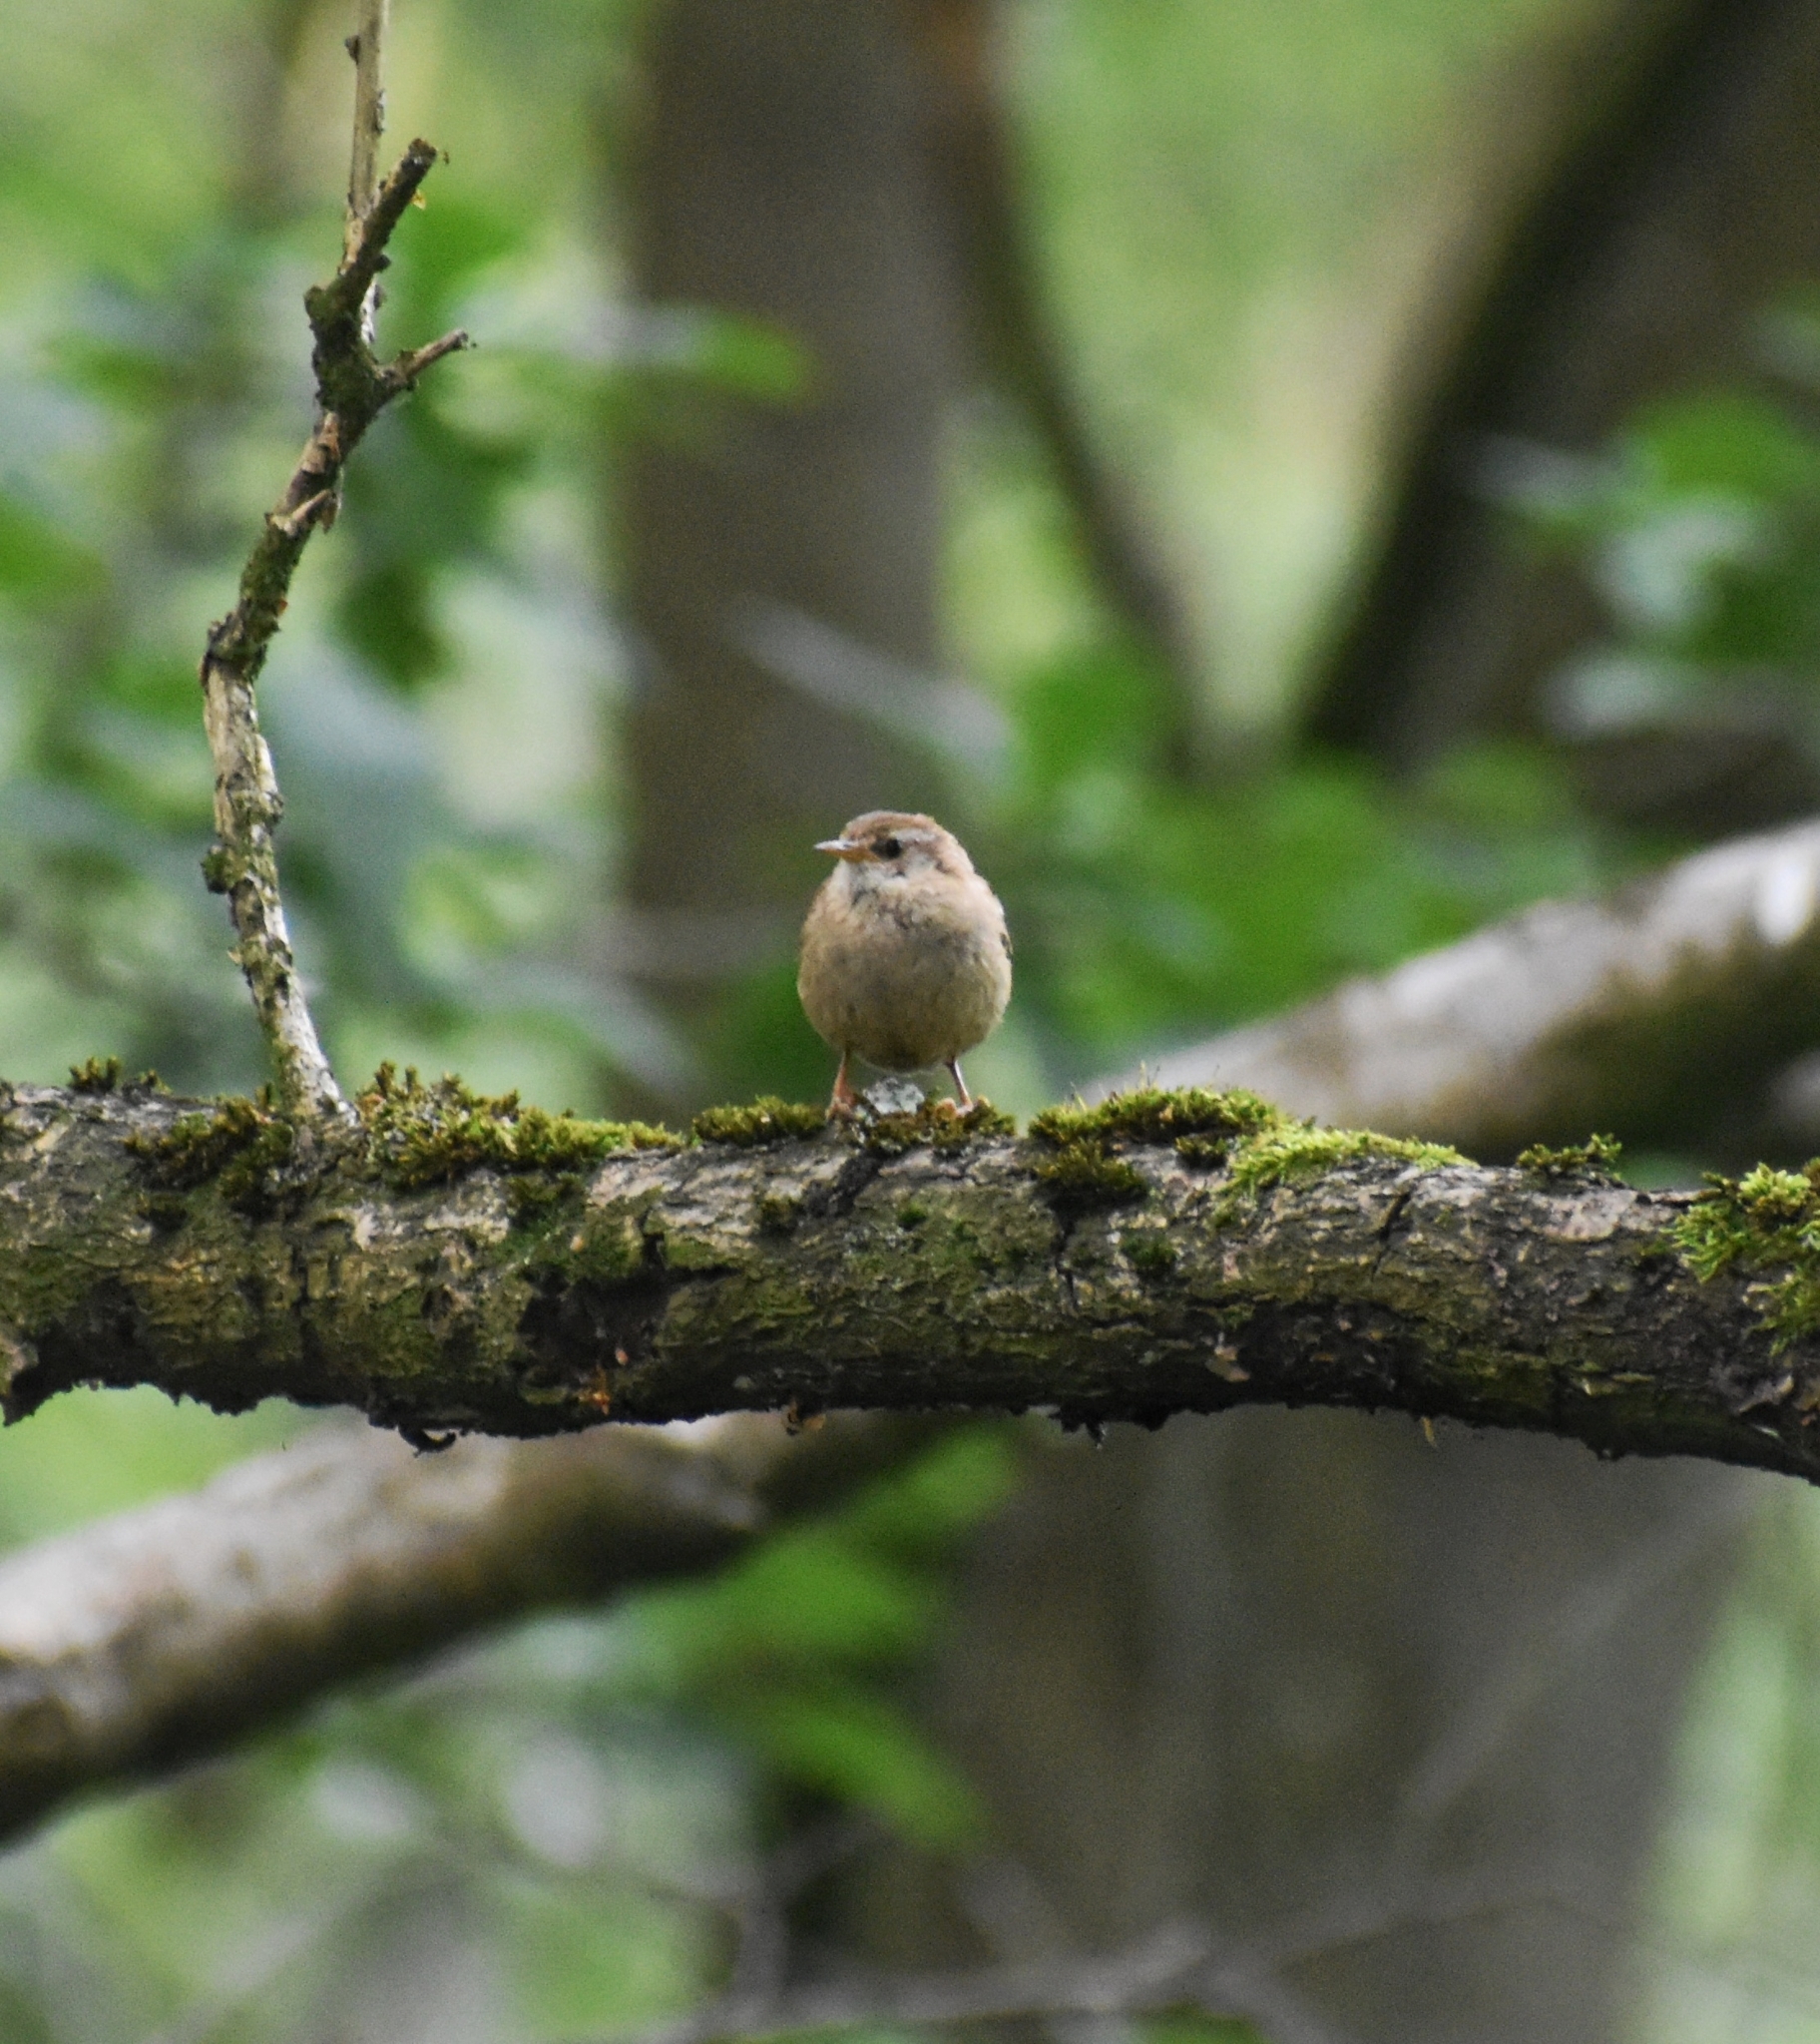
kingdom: Animalia
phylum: Chordata
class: Aves
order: Passeriformes
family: Troglodytidae
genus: Troglodytes
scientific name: Troglodytes troglodytes
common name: Eurasian wren
